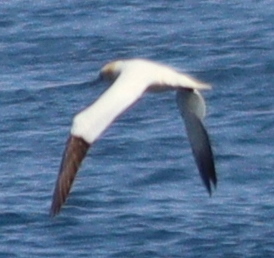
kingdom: Animalia
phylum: Chordata
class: Aves
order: Suliformes
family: Sulidae
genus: Morus
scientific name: Morus bassanus
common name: Northern gannet
